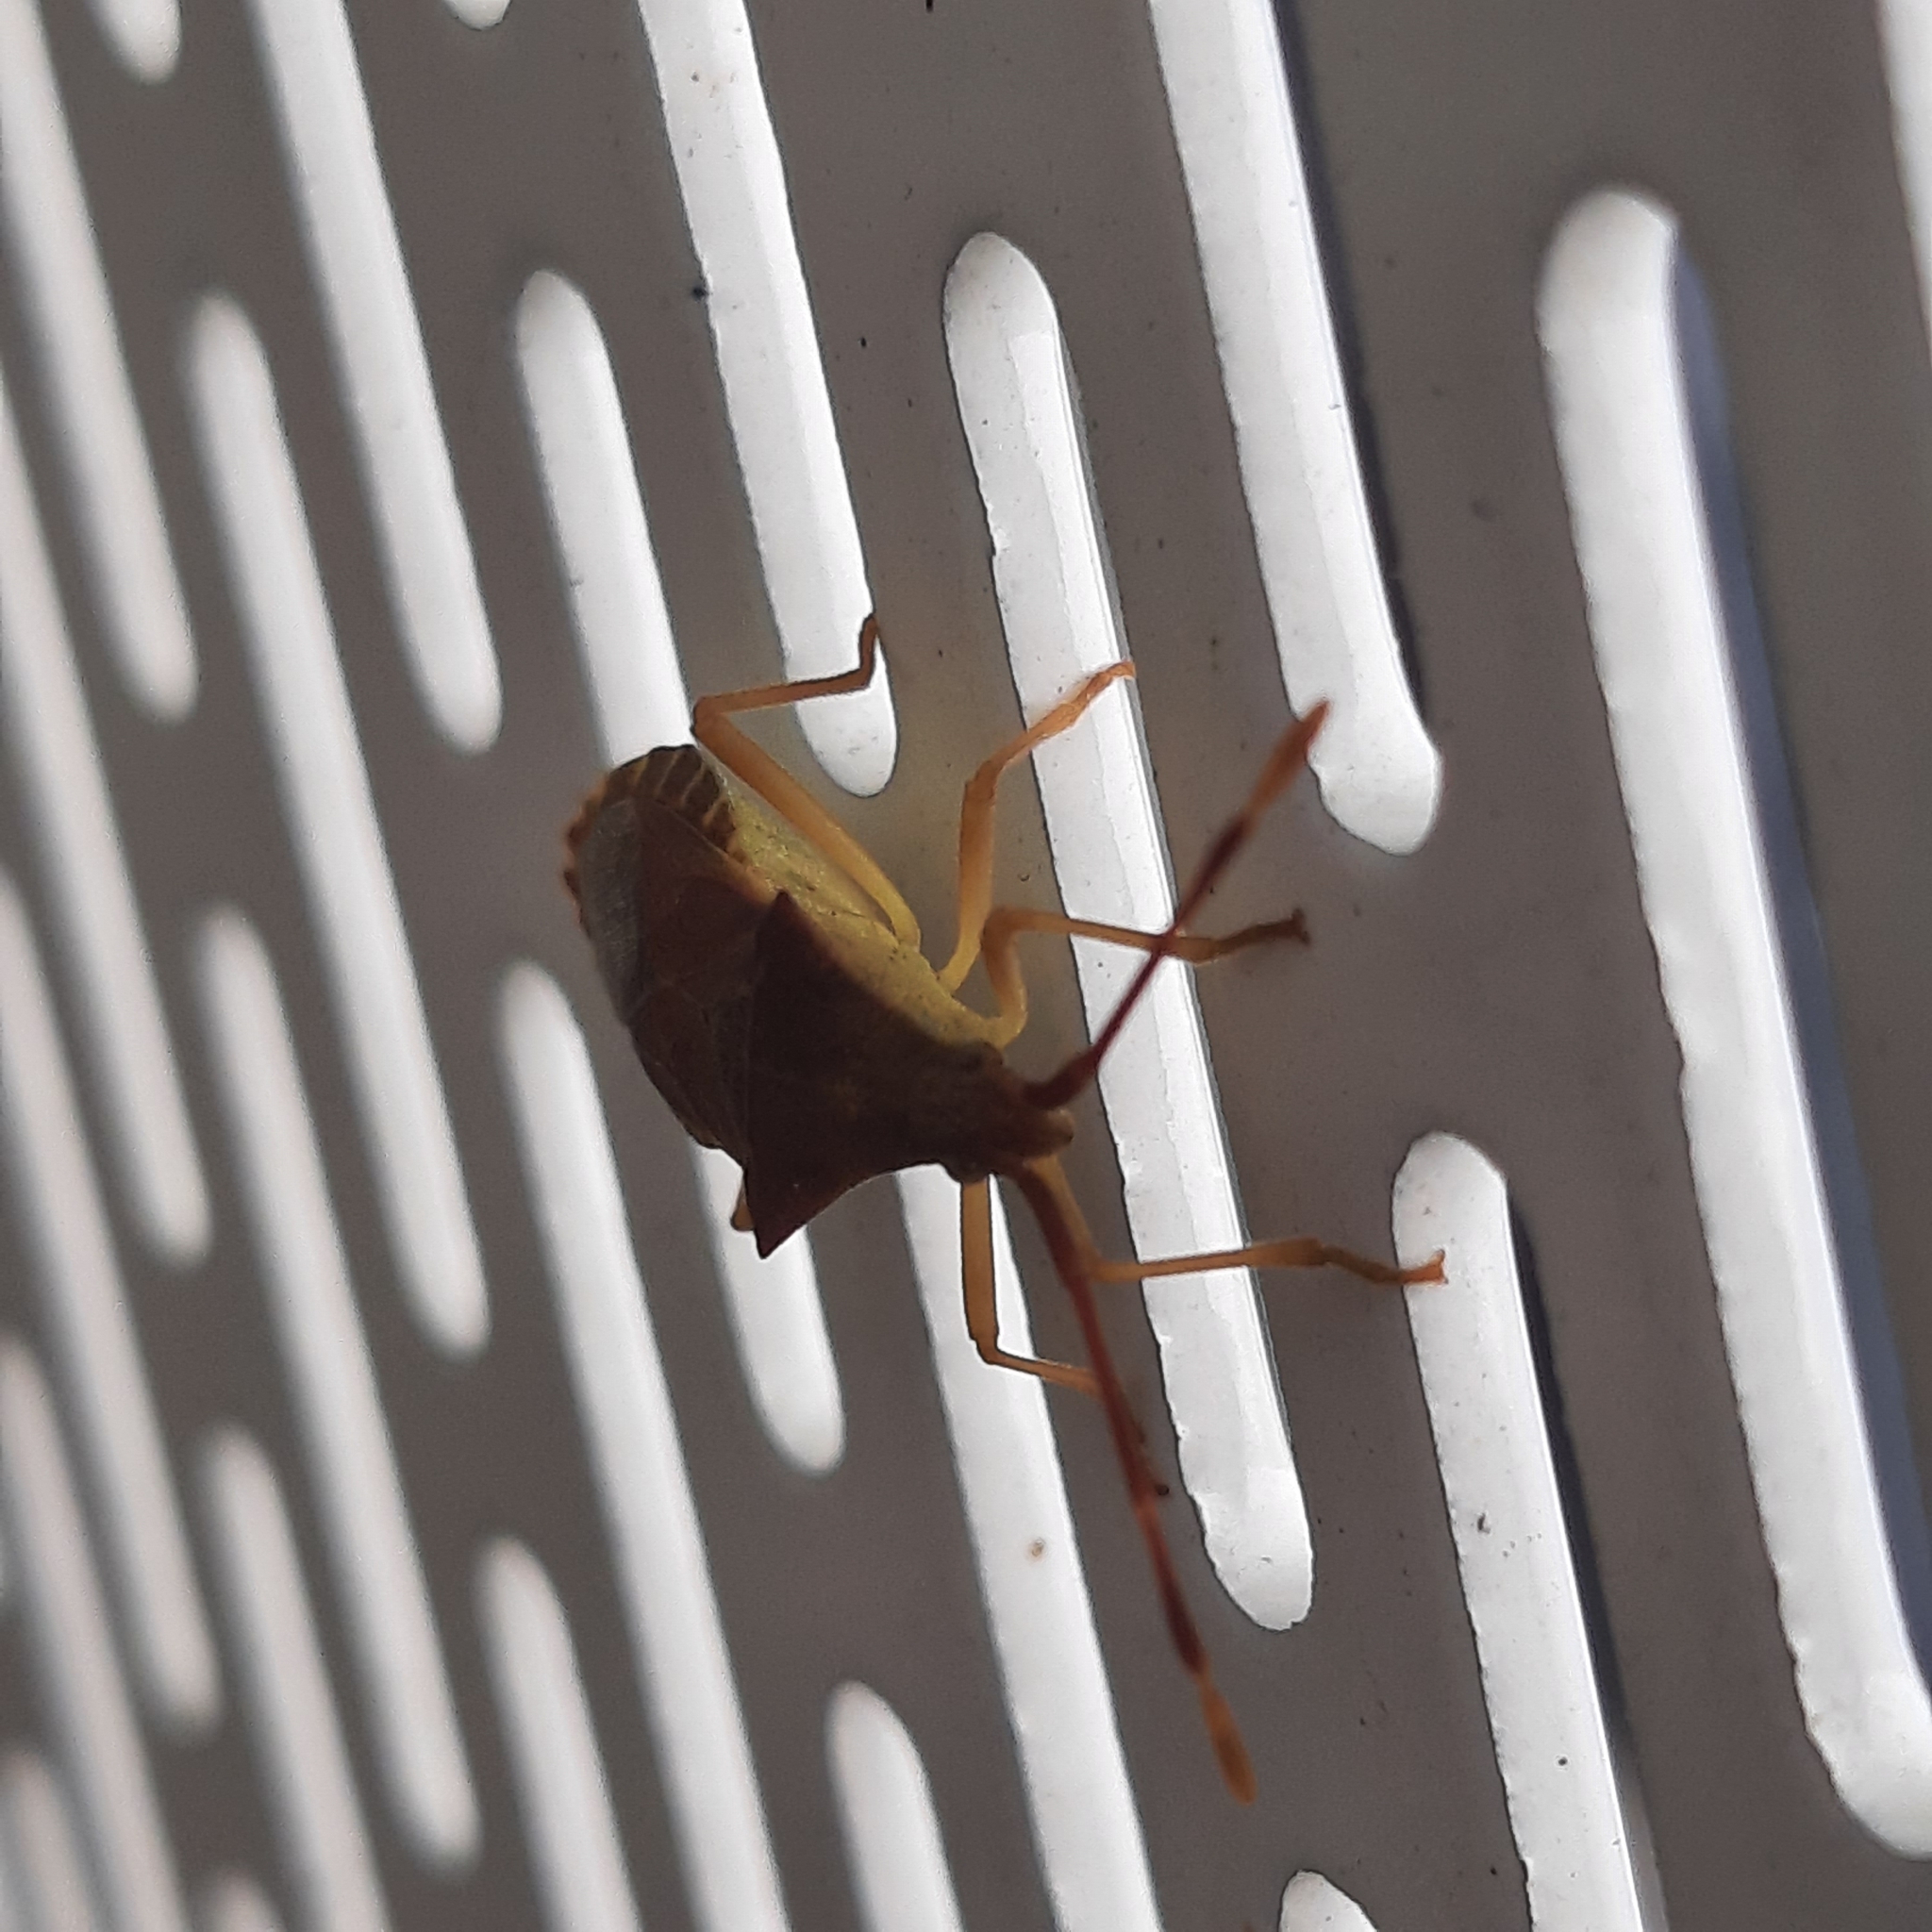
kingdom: Animalia
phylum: Arthropoda
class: Insecta
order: Hemiptera
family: Coreidae
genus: Gonocerus
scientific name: Gonocerus acuteangulatus
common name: Box bug
